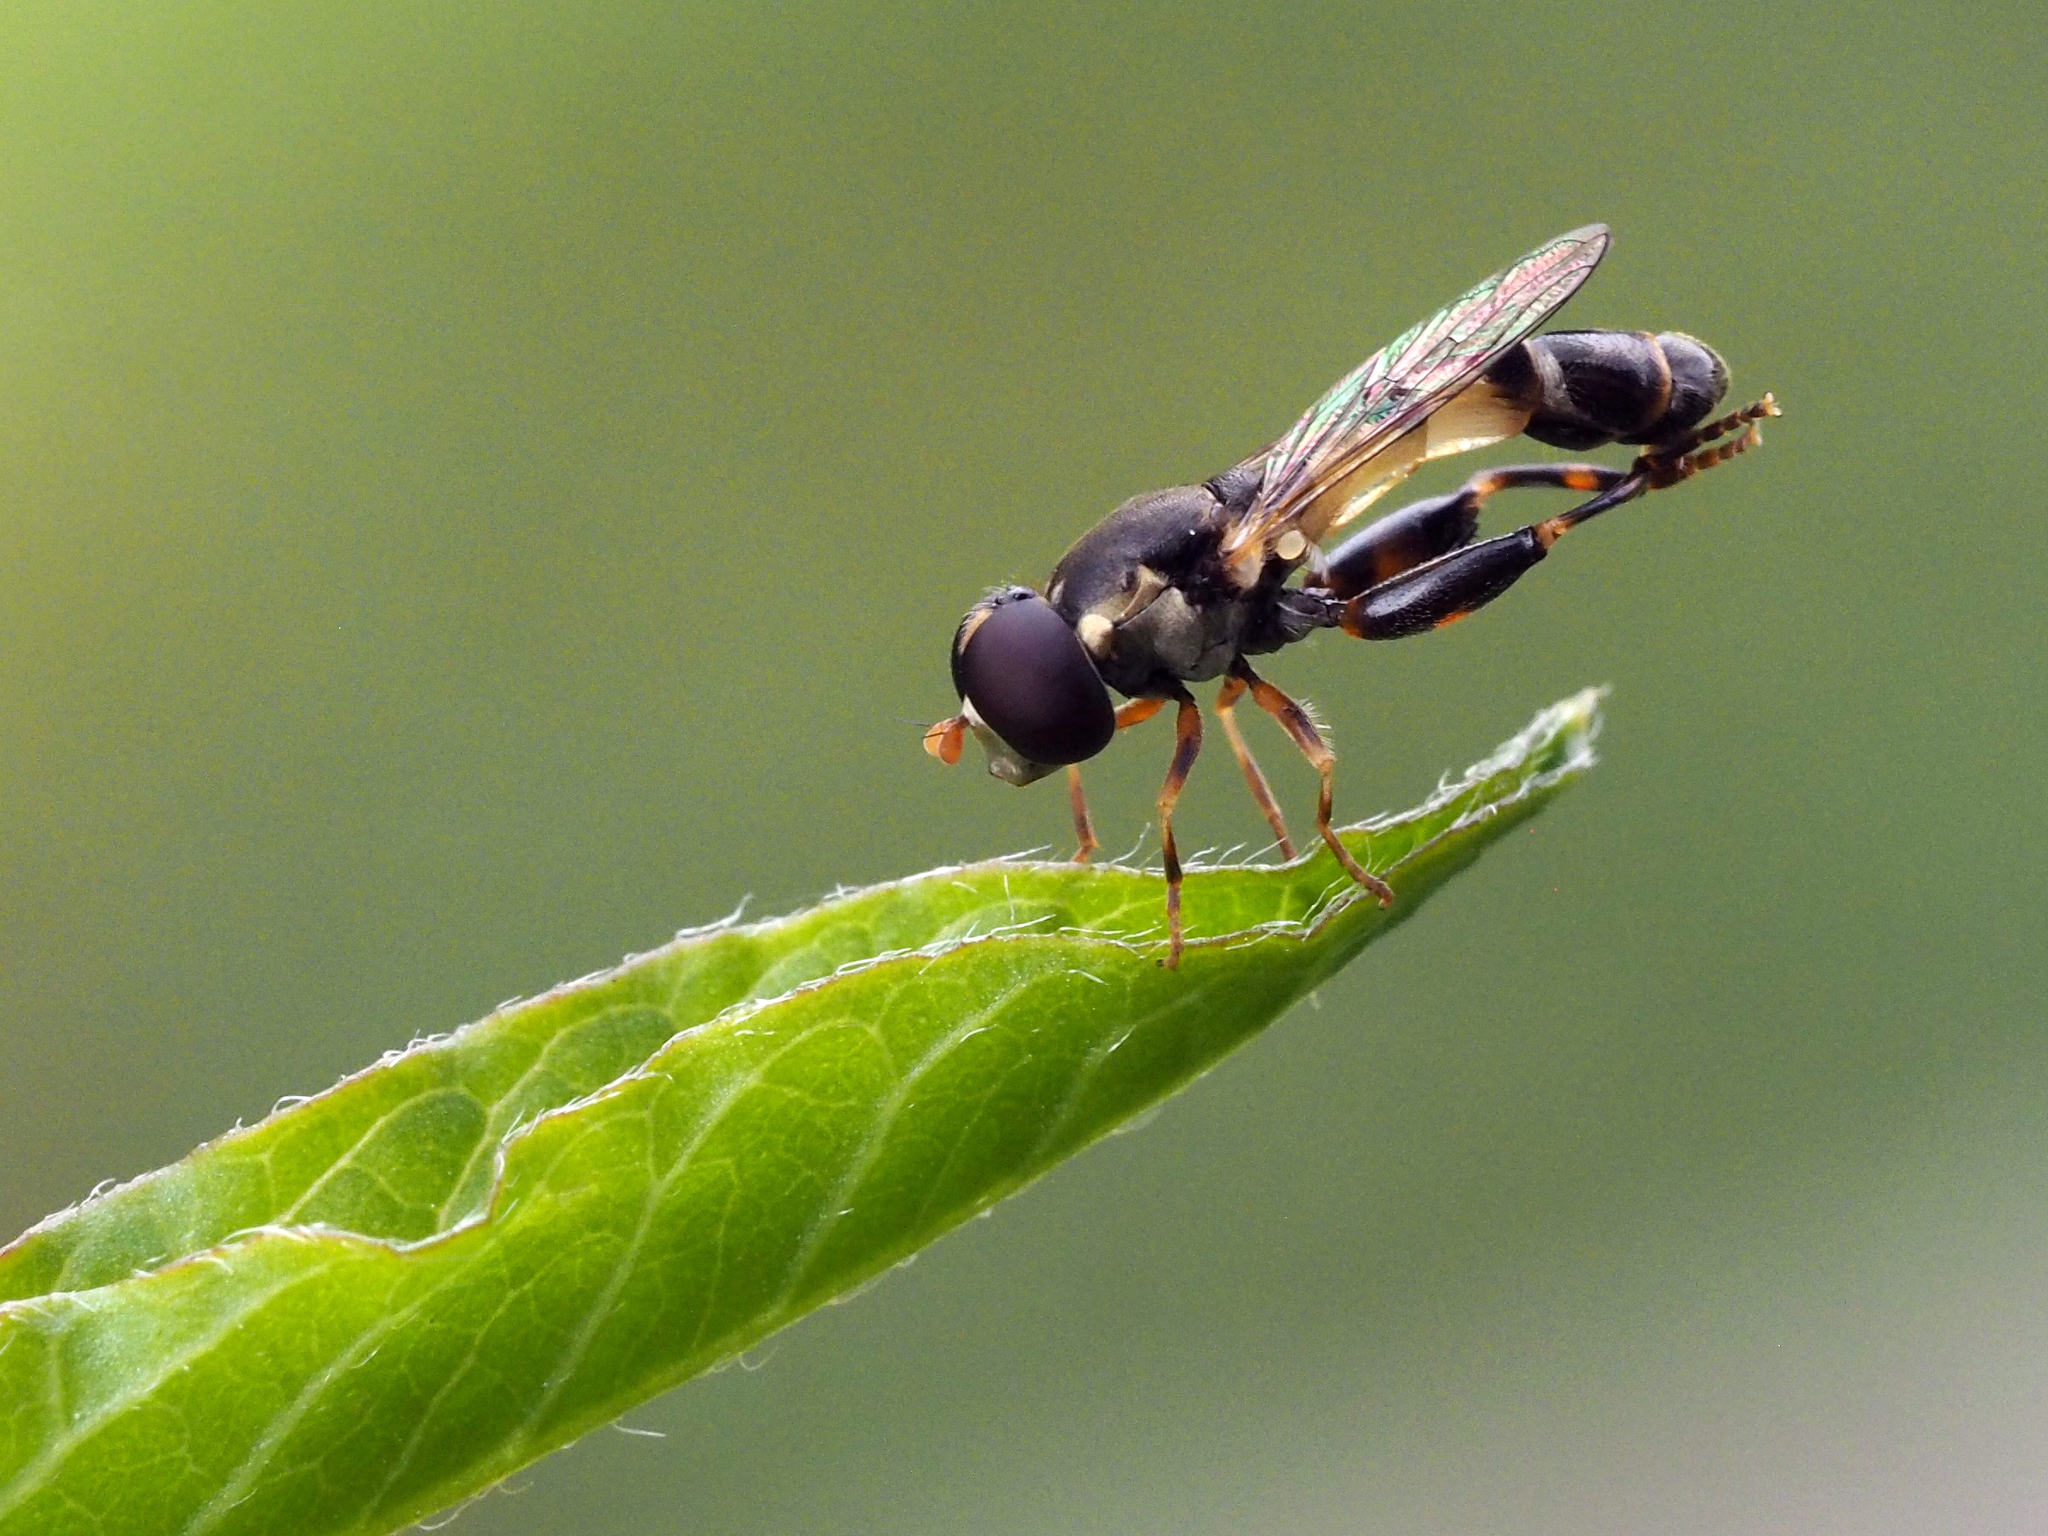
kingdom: Animalia
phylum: Arthropoda
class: Insecta
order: Diptera
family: Syrphidae
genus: Syritta
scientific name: Syritta pipiens
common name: Hover fly
